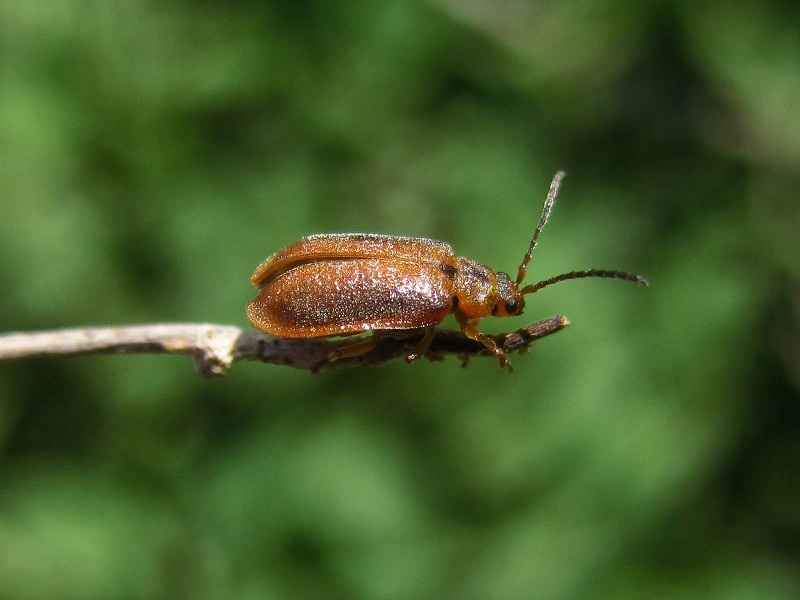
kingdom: Animalia
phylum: Arthropoda
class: Insecta
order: Coleoptera
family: Chrysomelidae
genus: Galerucella
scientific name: Galerucella tenella
